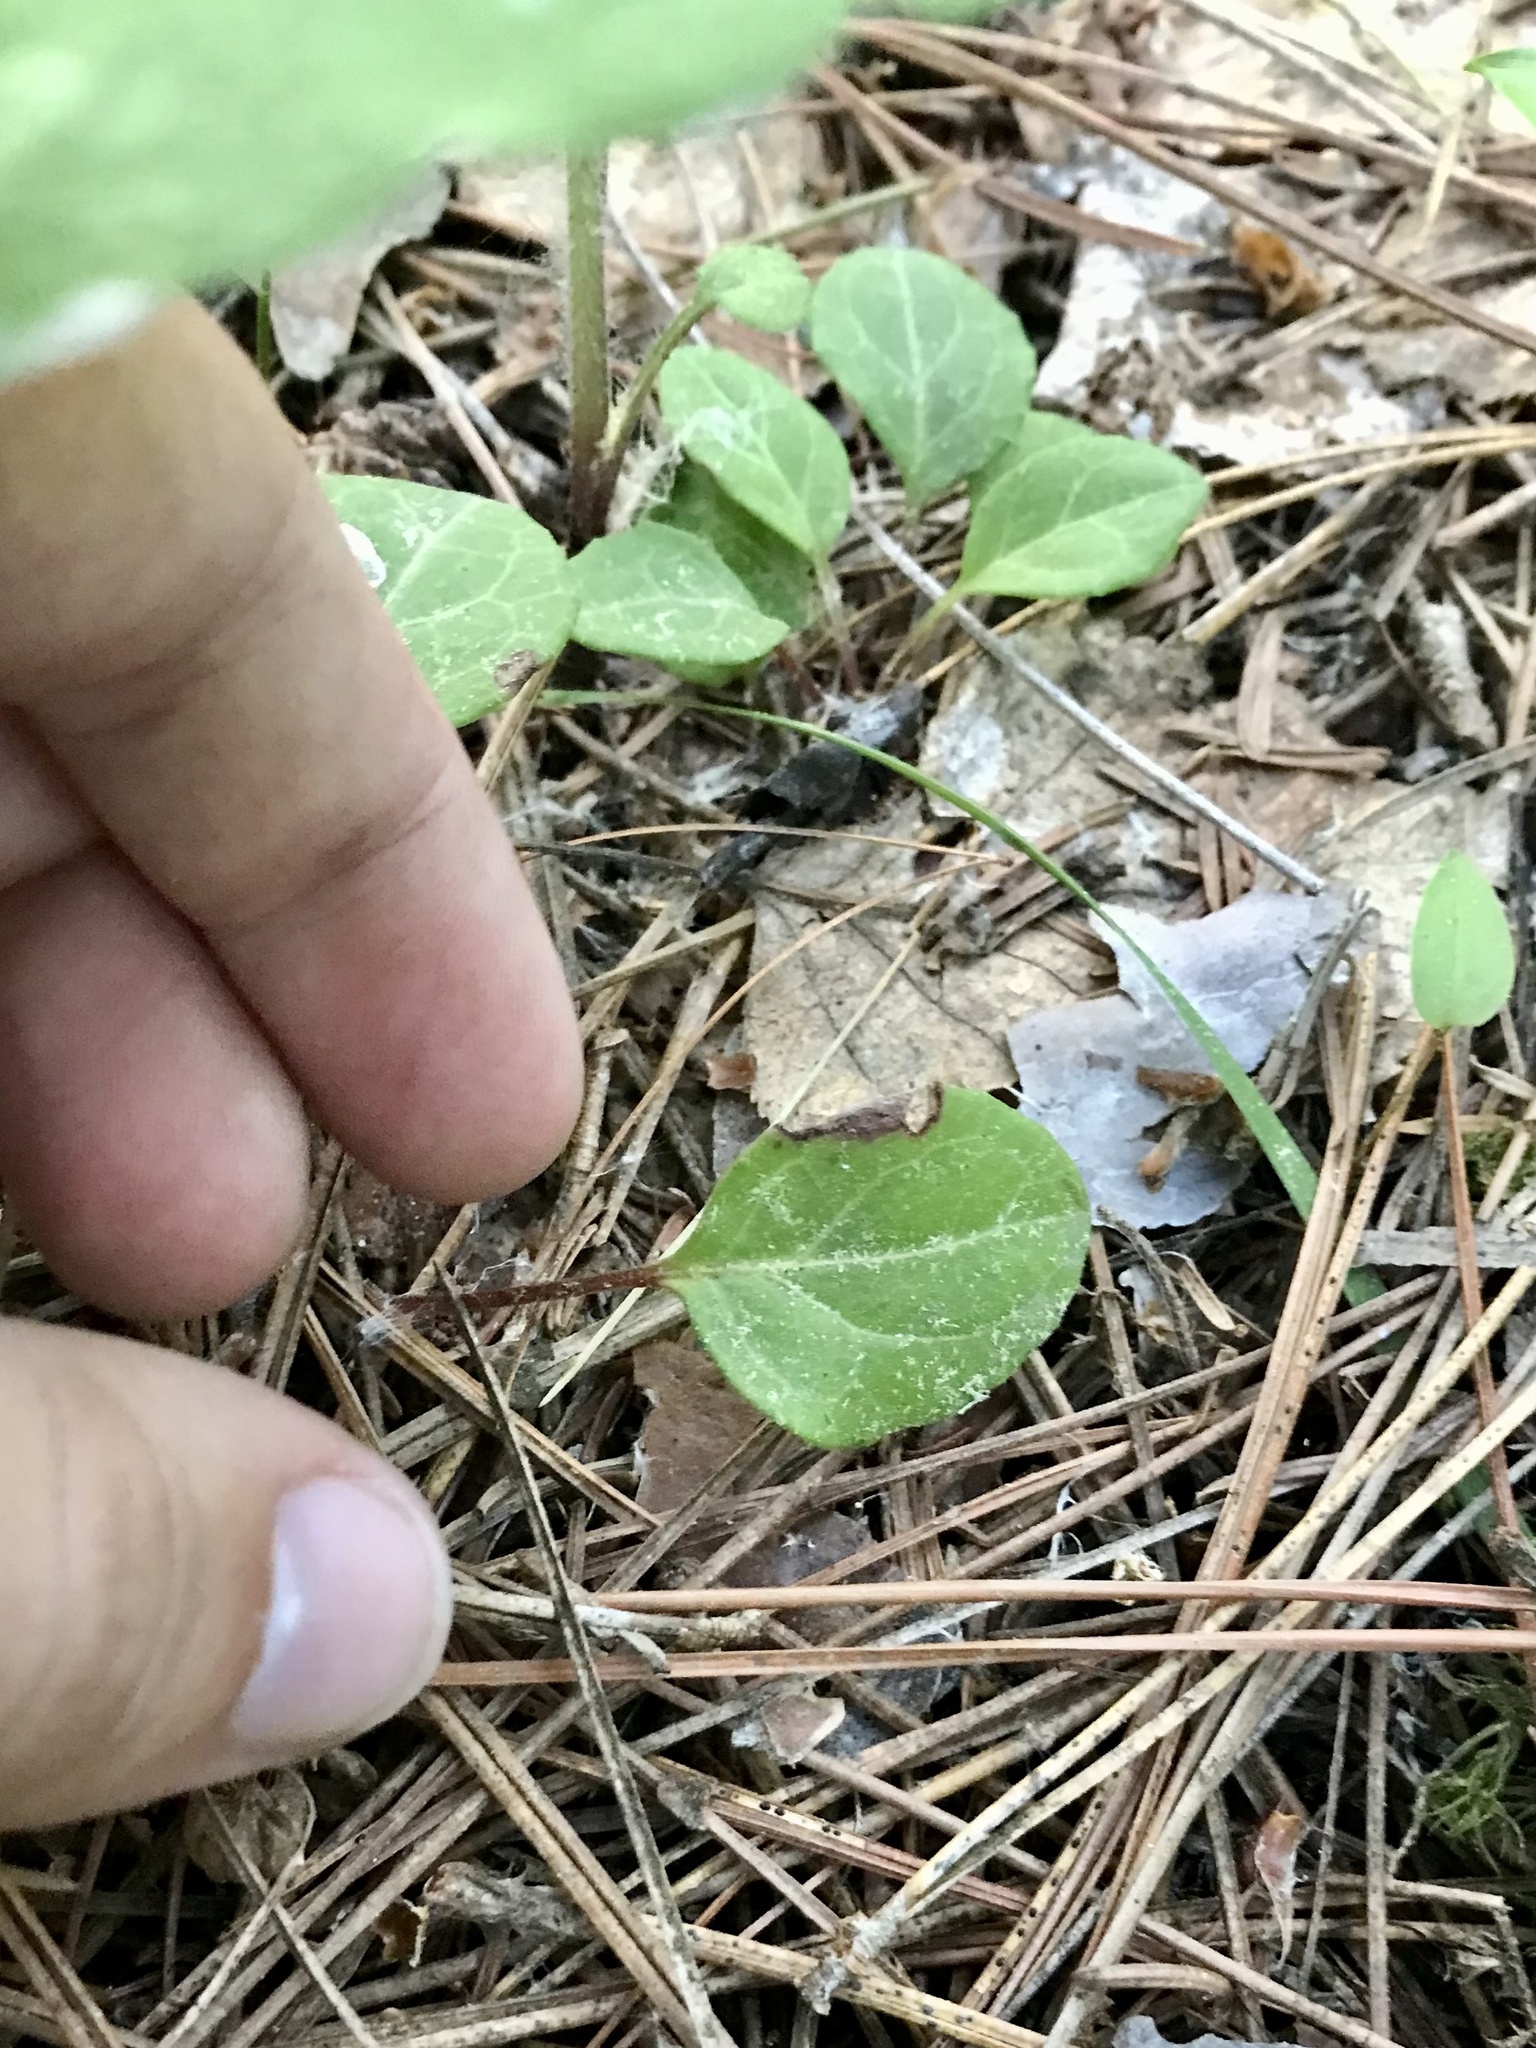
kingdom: Plantae
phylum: Tracheophyta
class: Magnoliopsida
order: Ericales
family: Ericaceae
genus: Pyrola
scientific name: Pyrola chlorantha
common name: Green wintergreen
